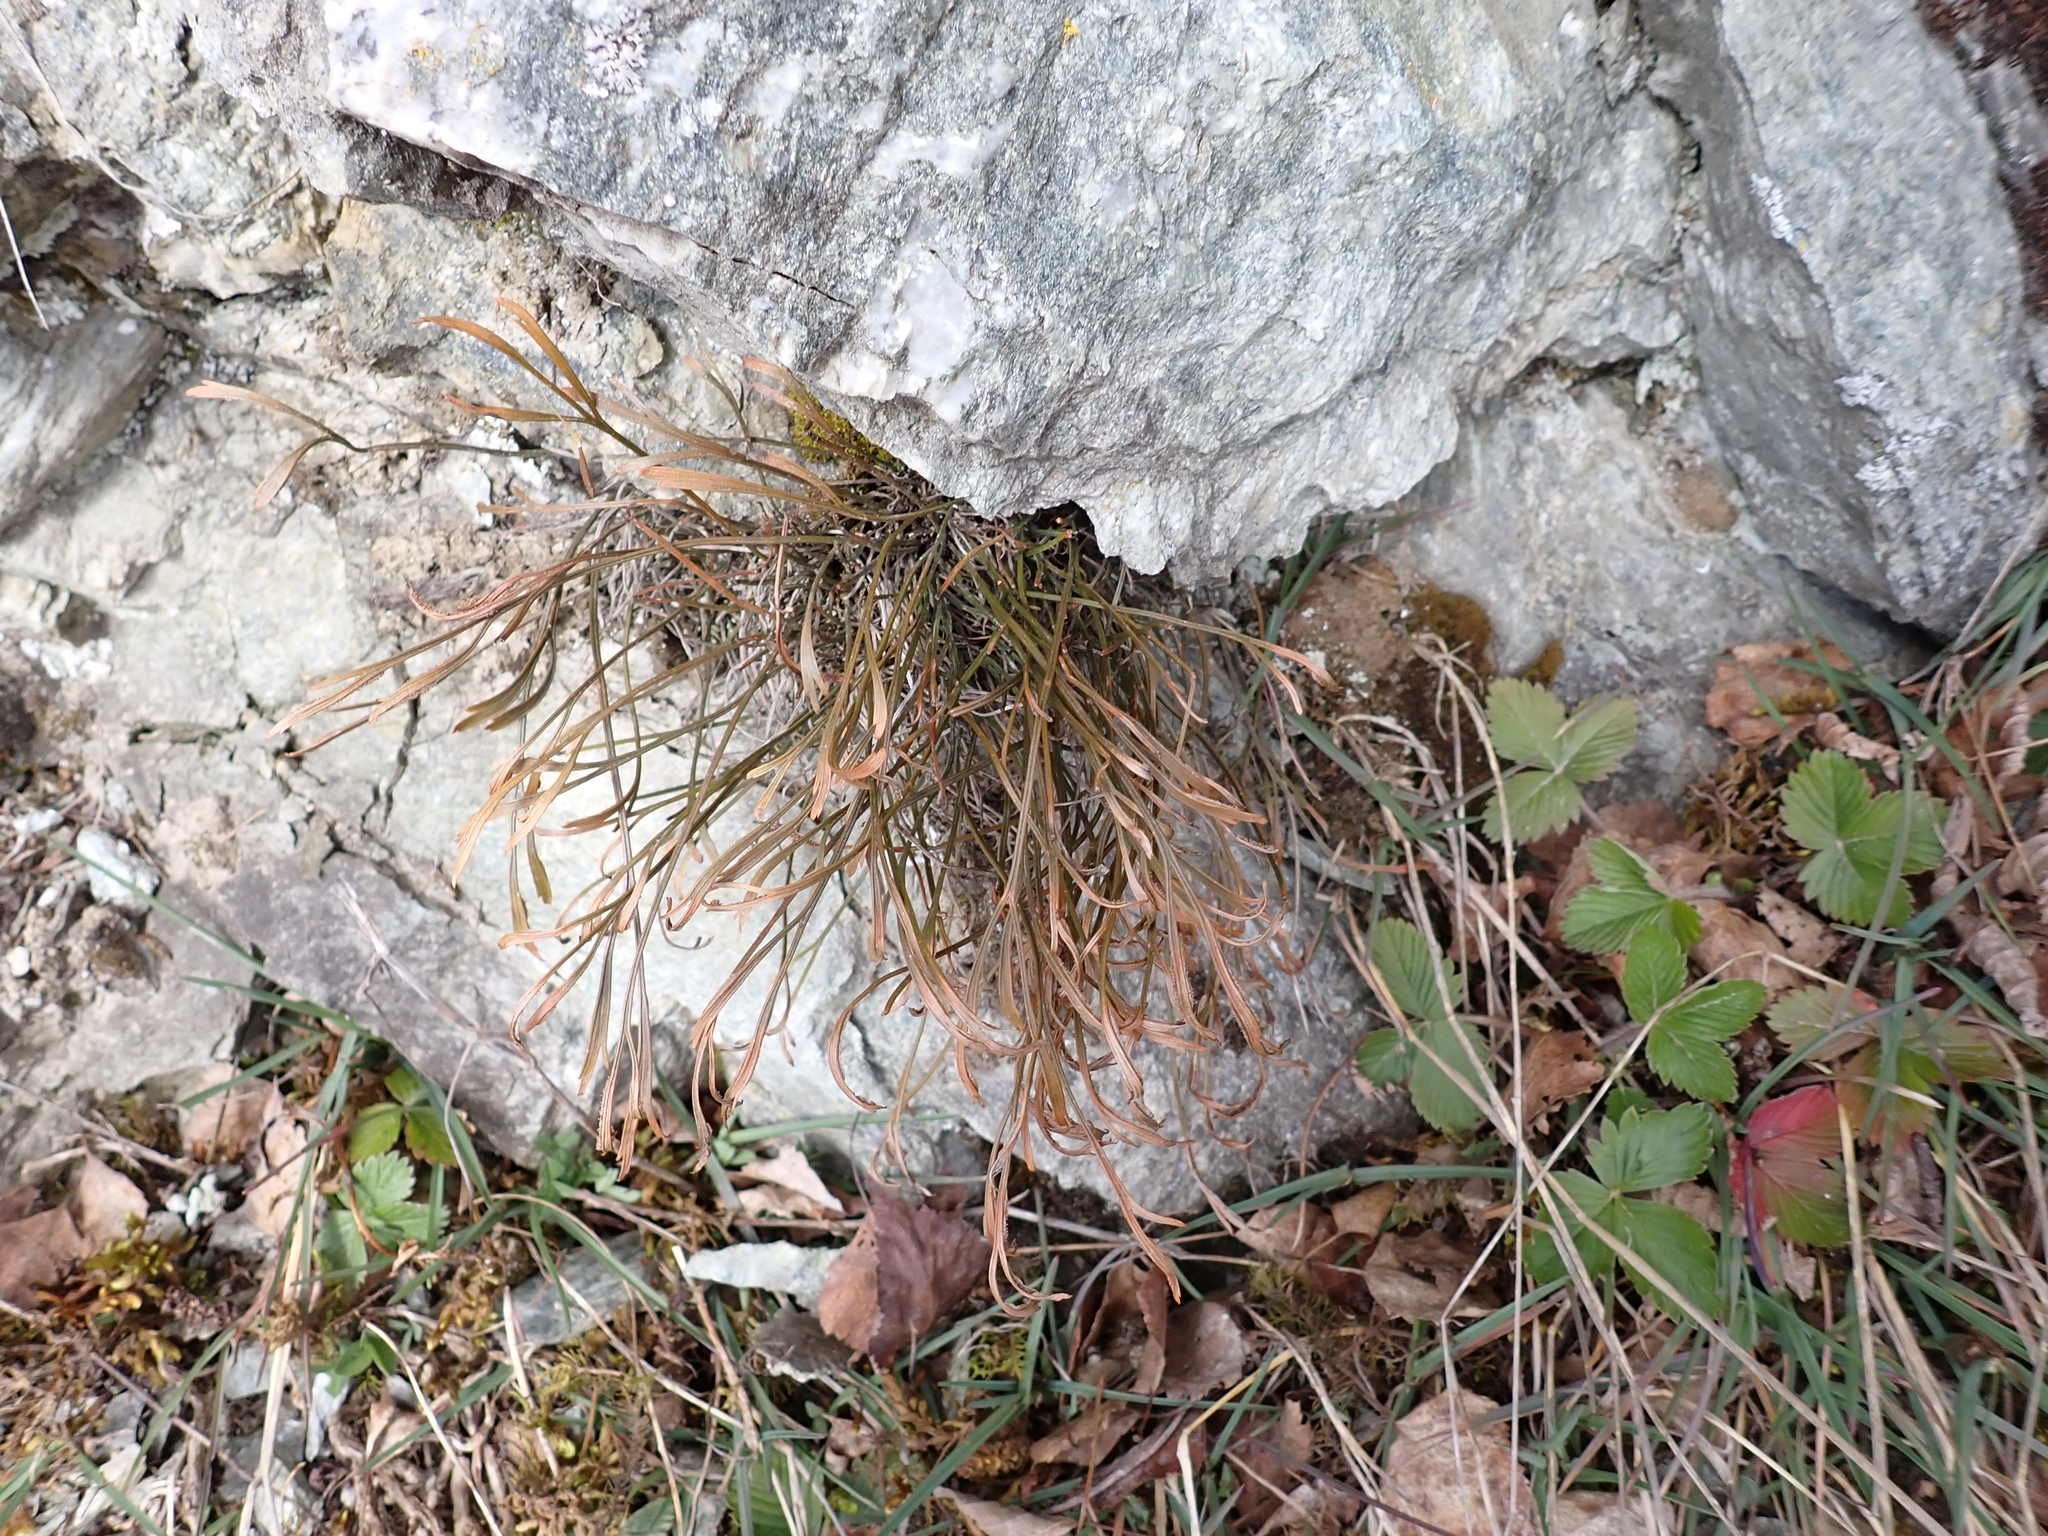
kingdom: Plantae
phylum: Tracheophyta
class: Polypodiopsida
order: Polypodiales
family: Aspleniaceae
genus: Asplenium
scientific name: Asplenium septentrionale
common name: Forked spleenwort
